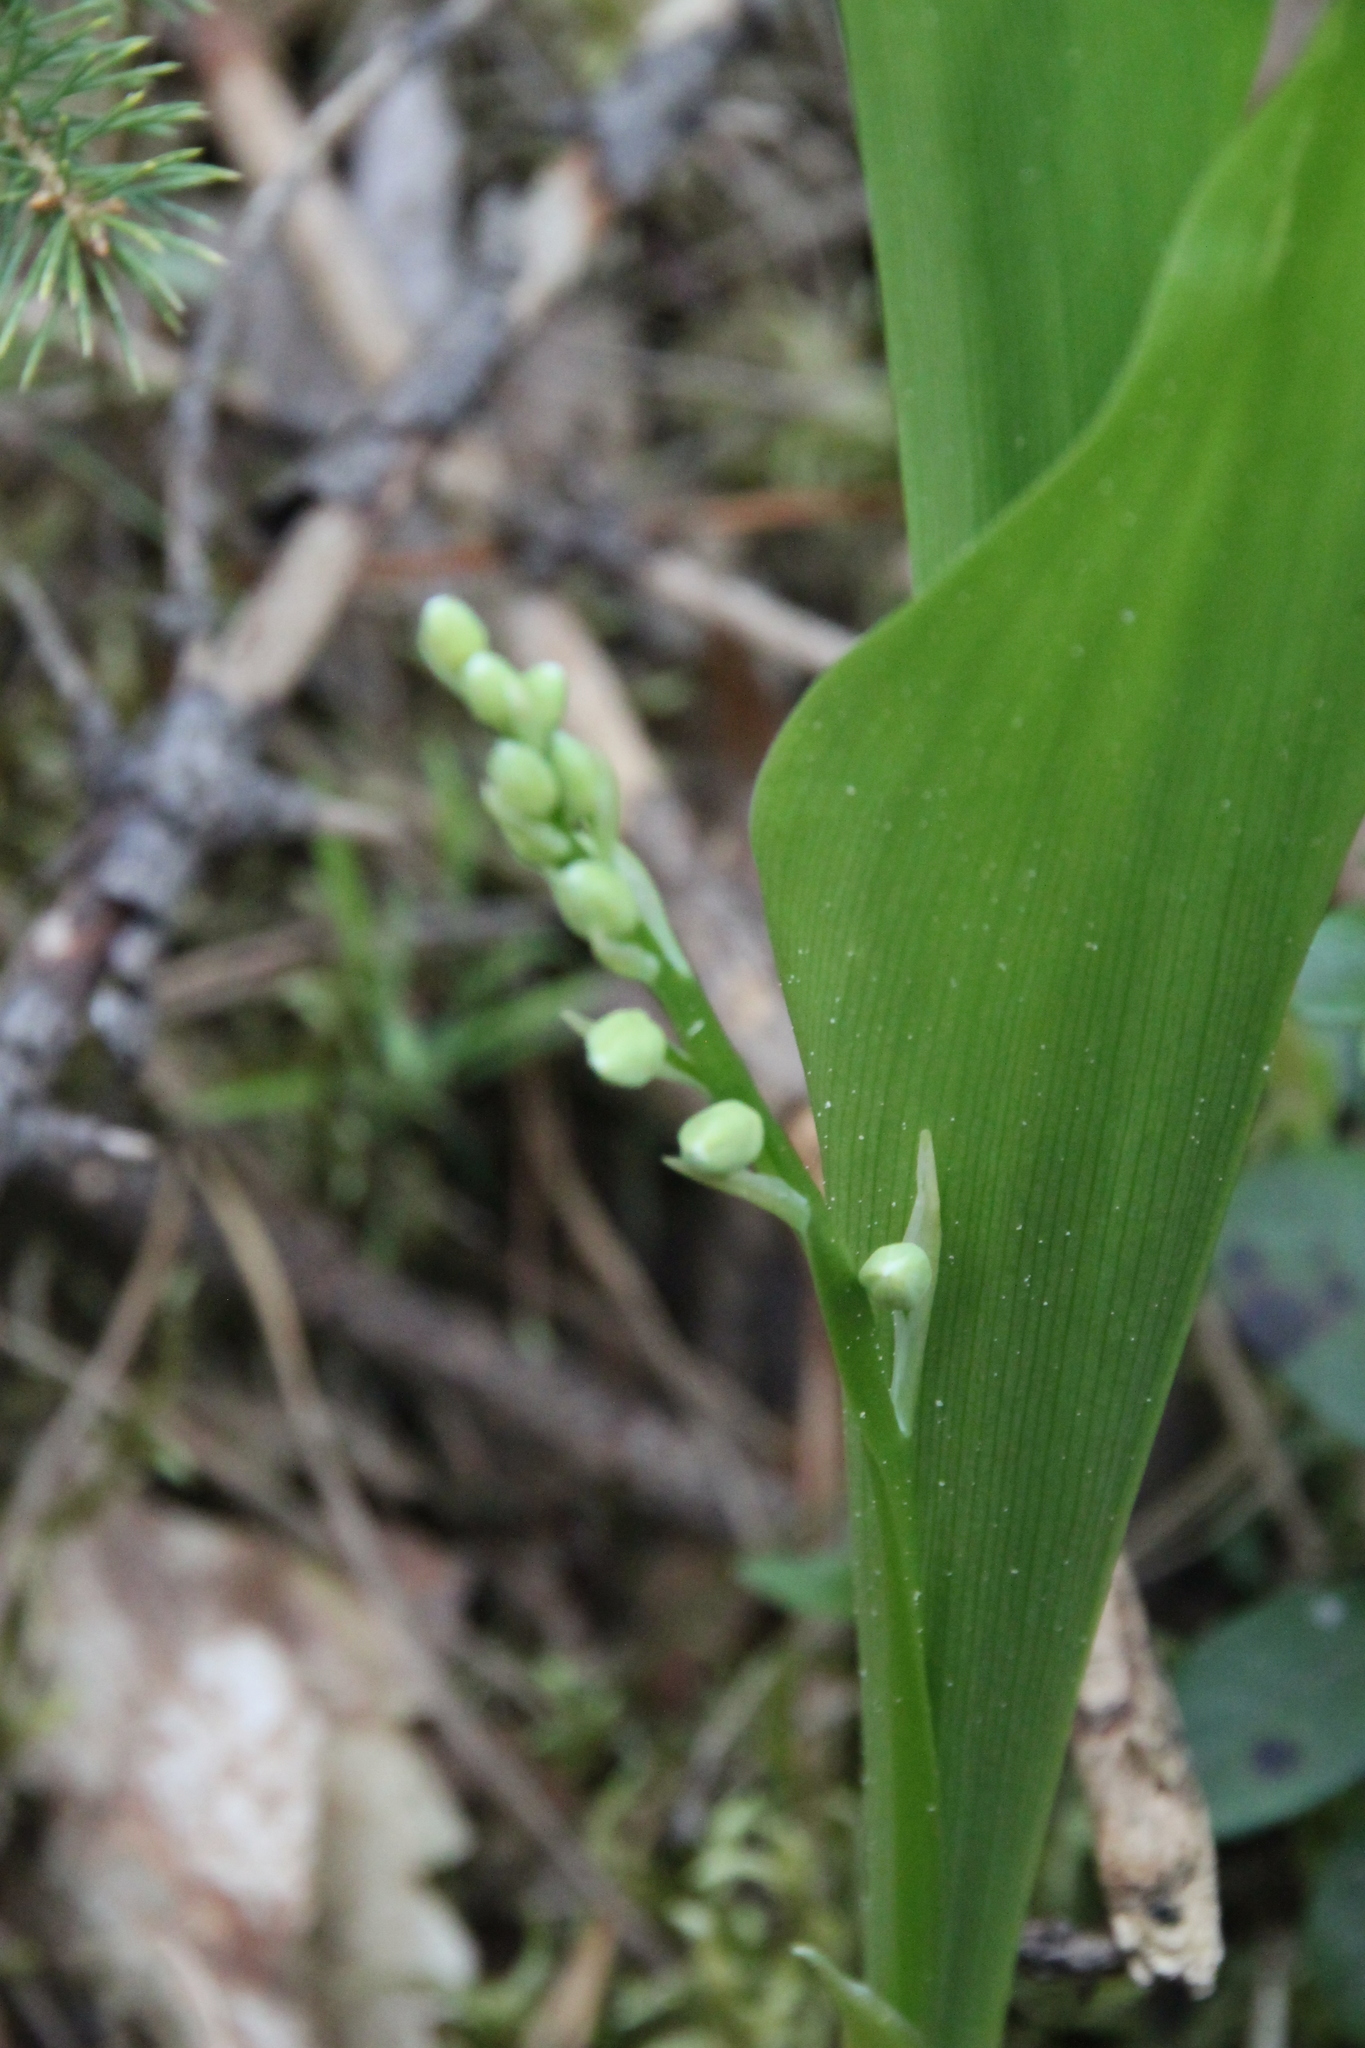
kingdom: Plantae
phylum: Tracheophyta
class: Liliopsida
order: Asparagales
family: Asparagaceae
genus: Convallaria
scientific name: Convallaria majalis
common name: Lily-of-the-valley
